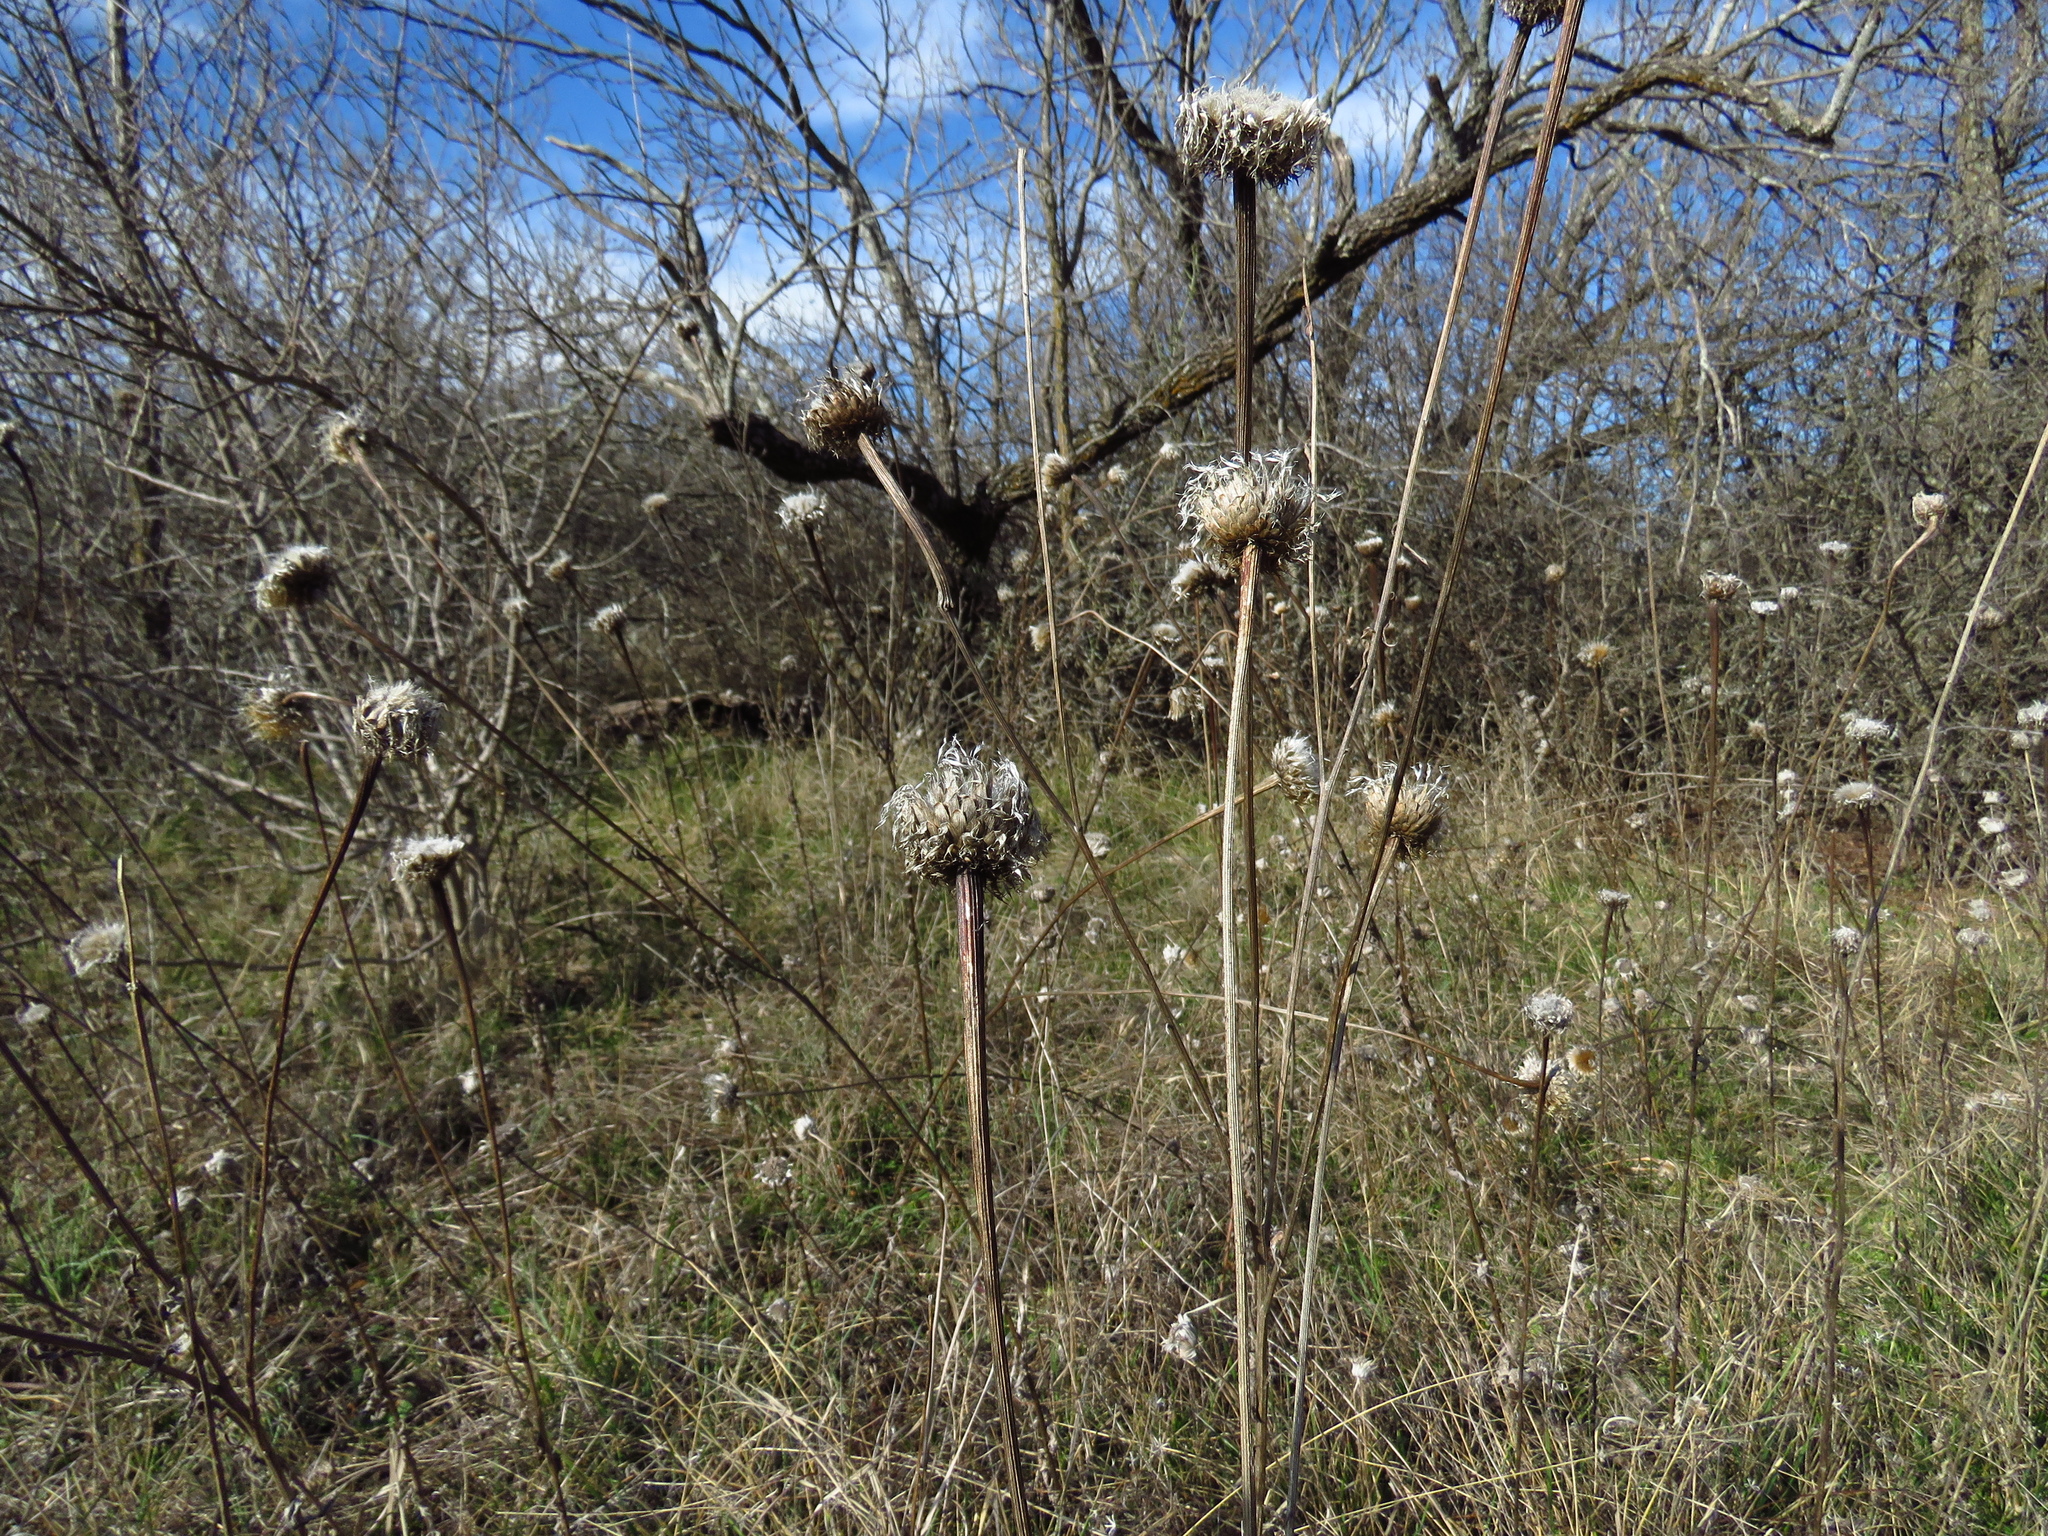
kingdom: Plantae
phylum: Tracheophyta
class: Magnoliopsida
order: Asterales
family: Asteraceae
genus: Plectocephalus
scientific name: Plectocephalus americanus
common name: American basket-flower
